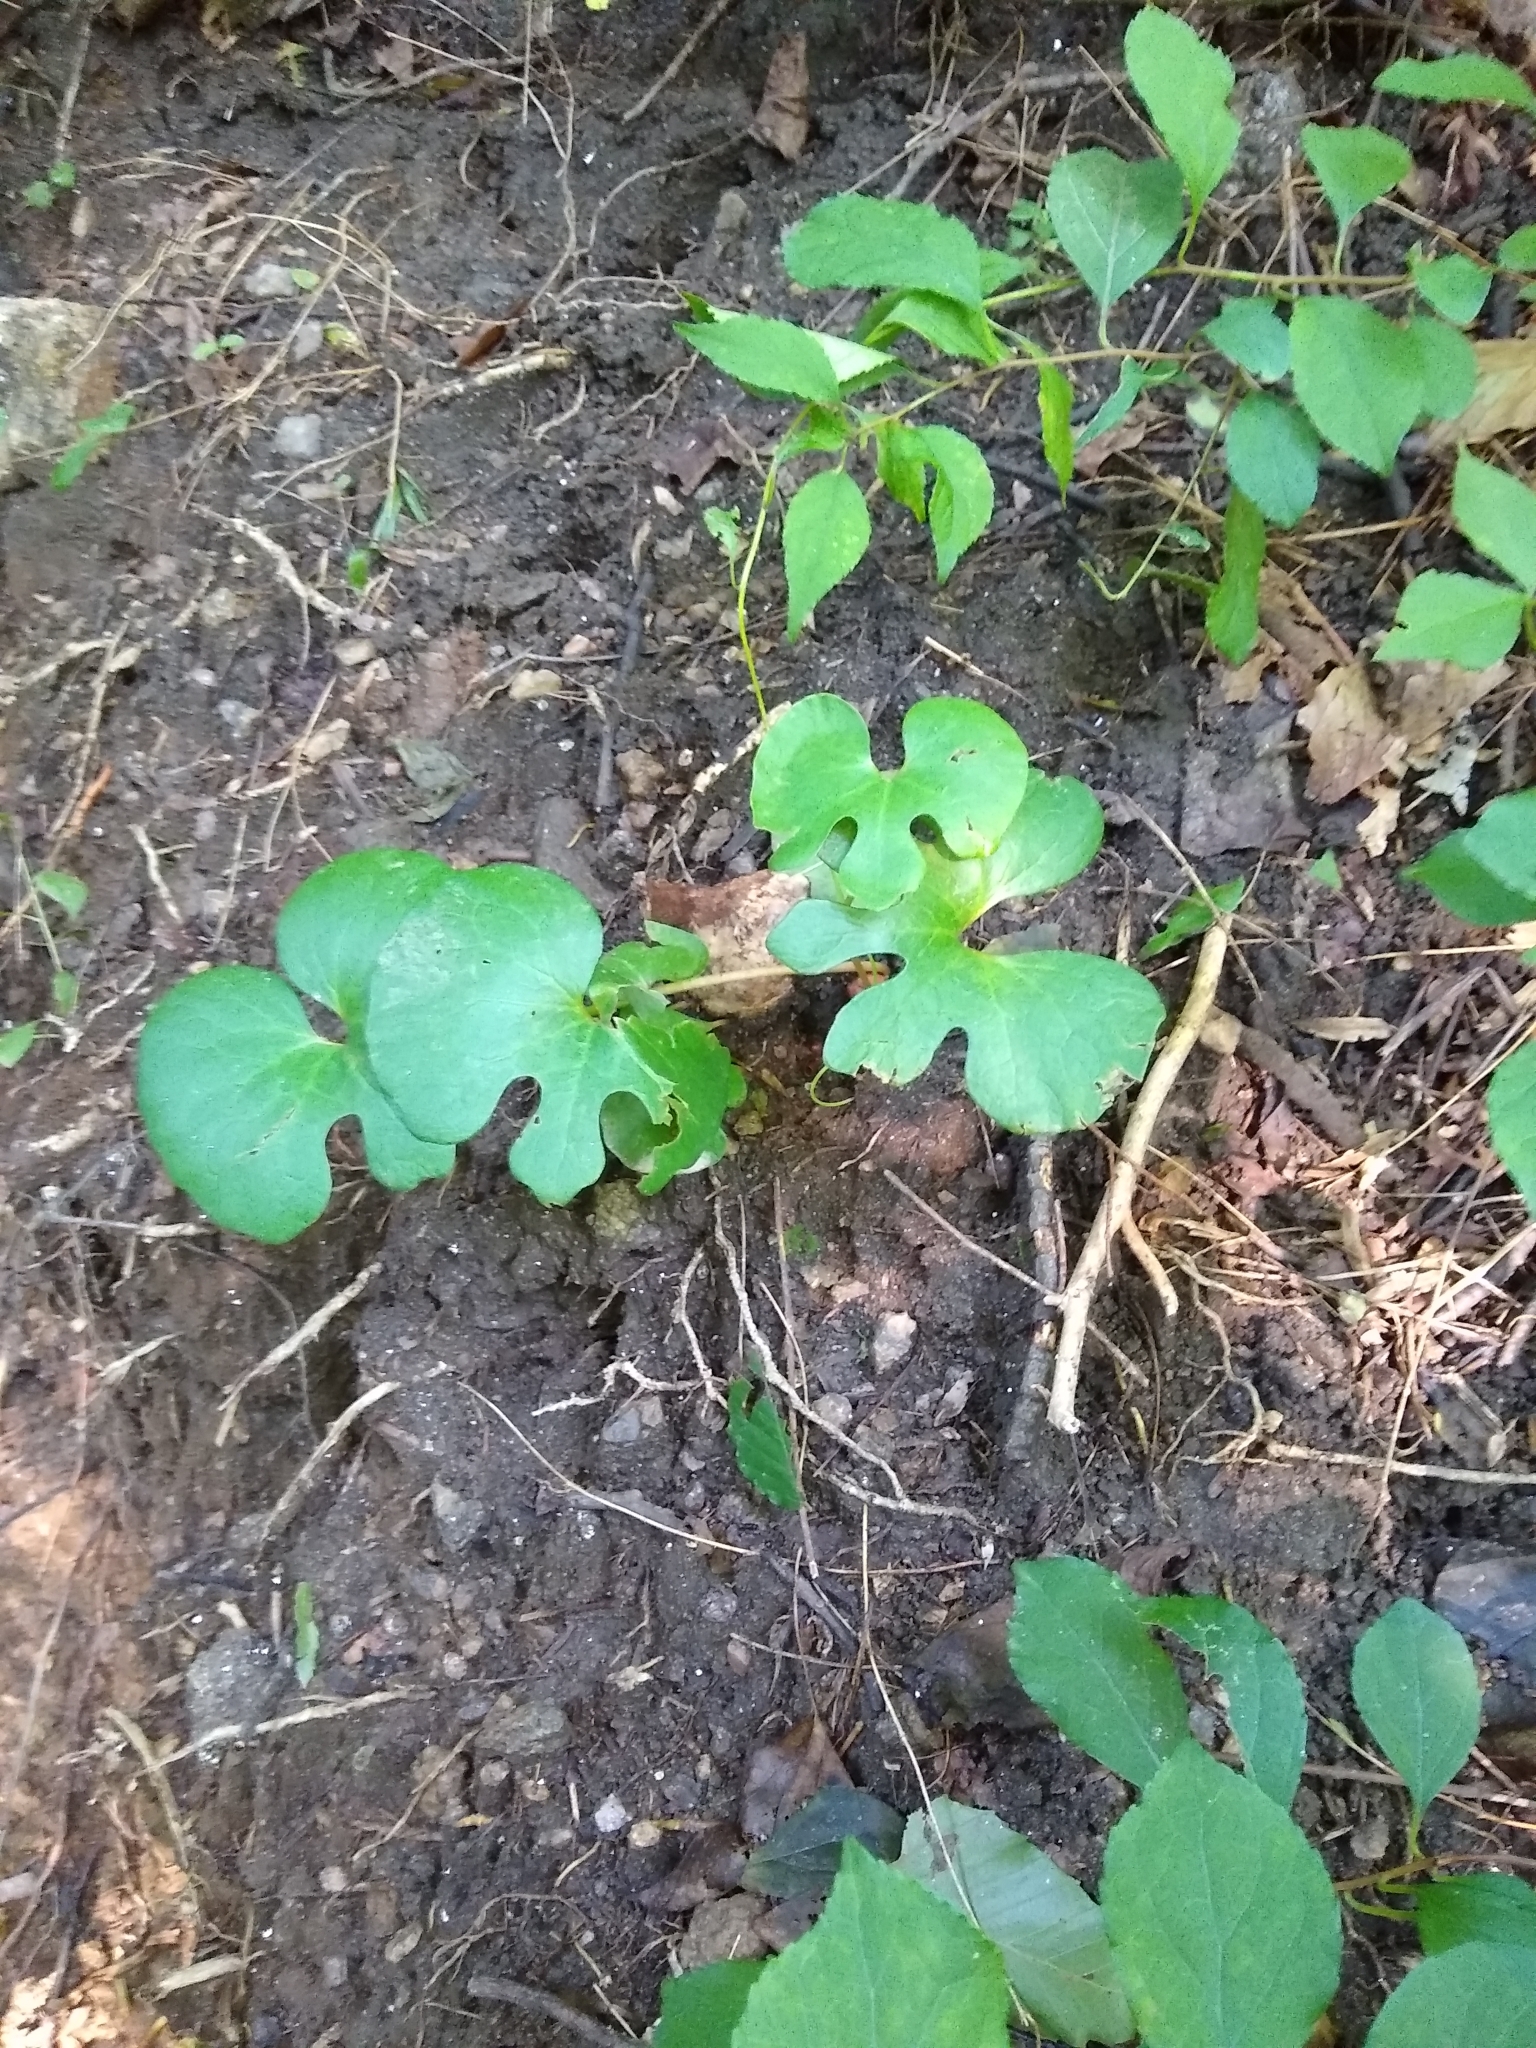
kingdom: Plantae
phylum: Tracheophyta
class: Magnoliopsida
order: Ranunculales
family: Papaveraceae
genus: Sanguinaria
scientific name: Sanguinaria canadensis
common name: Bloodroot
